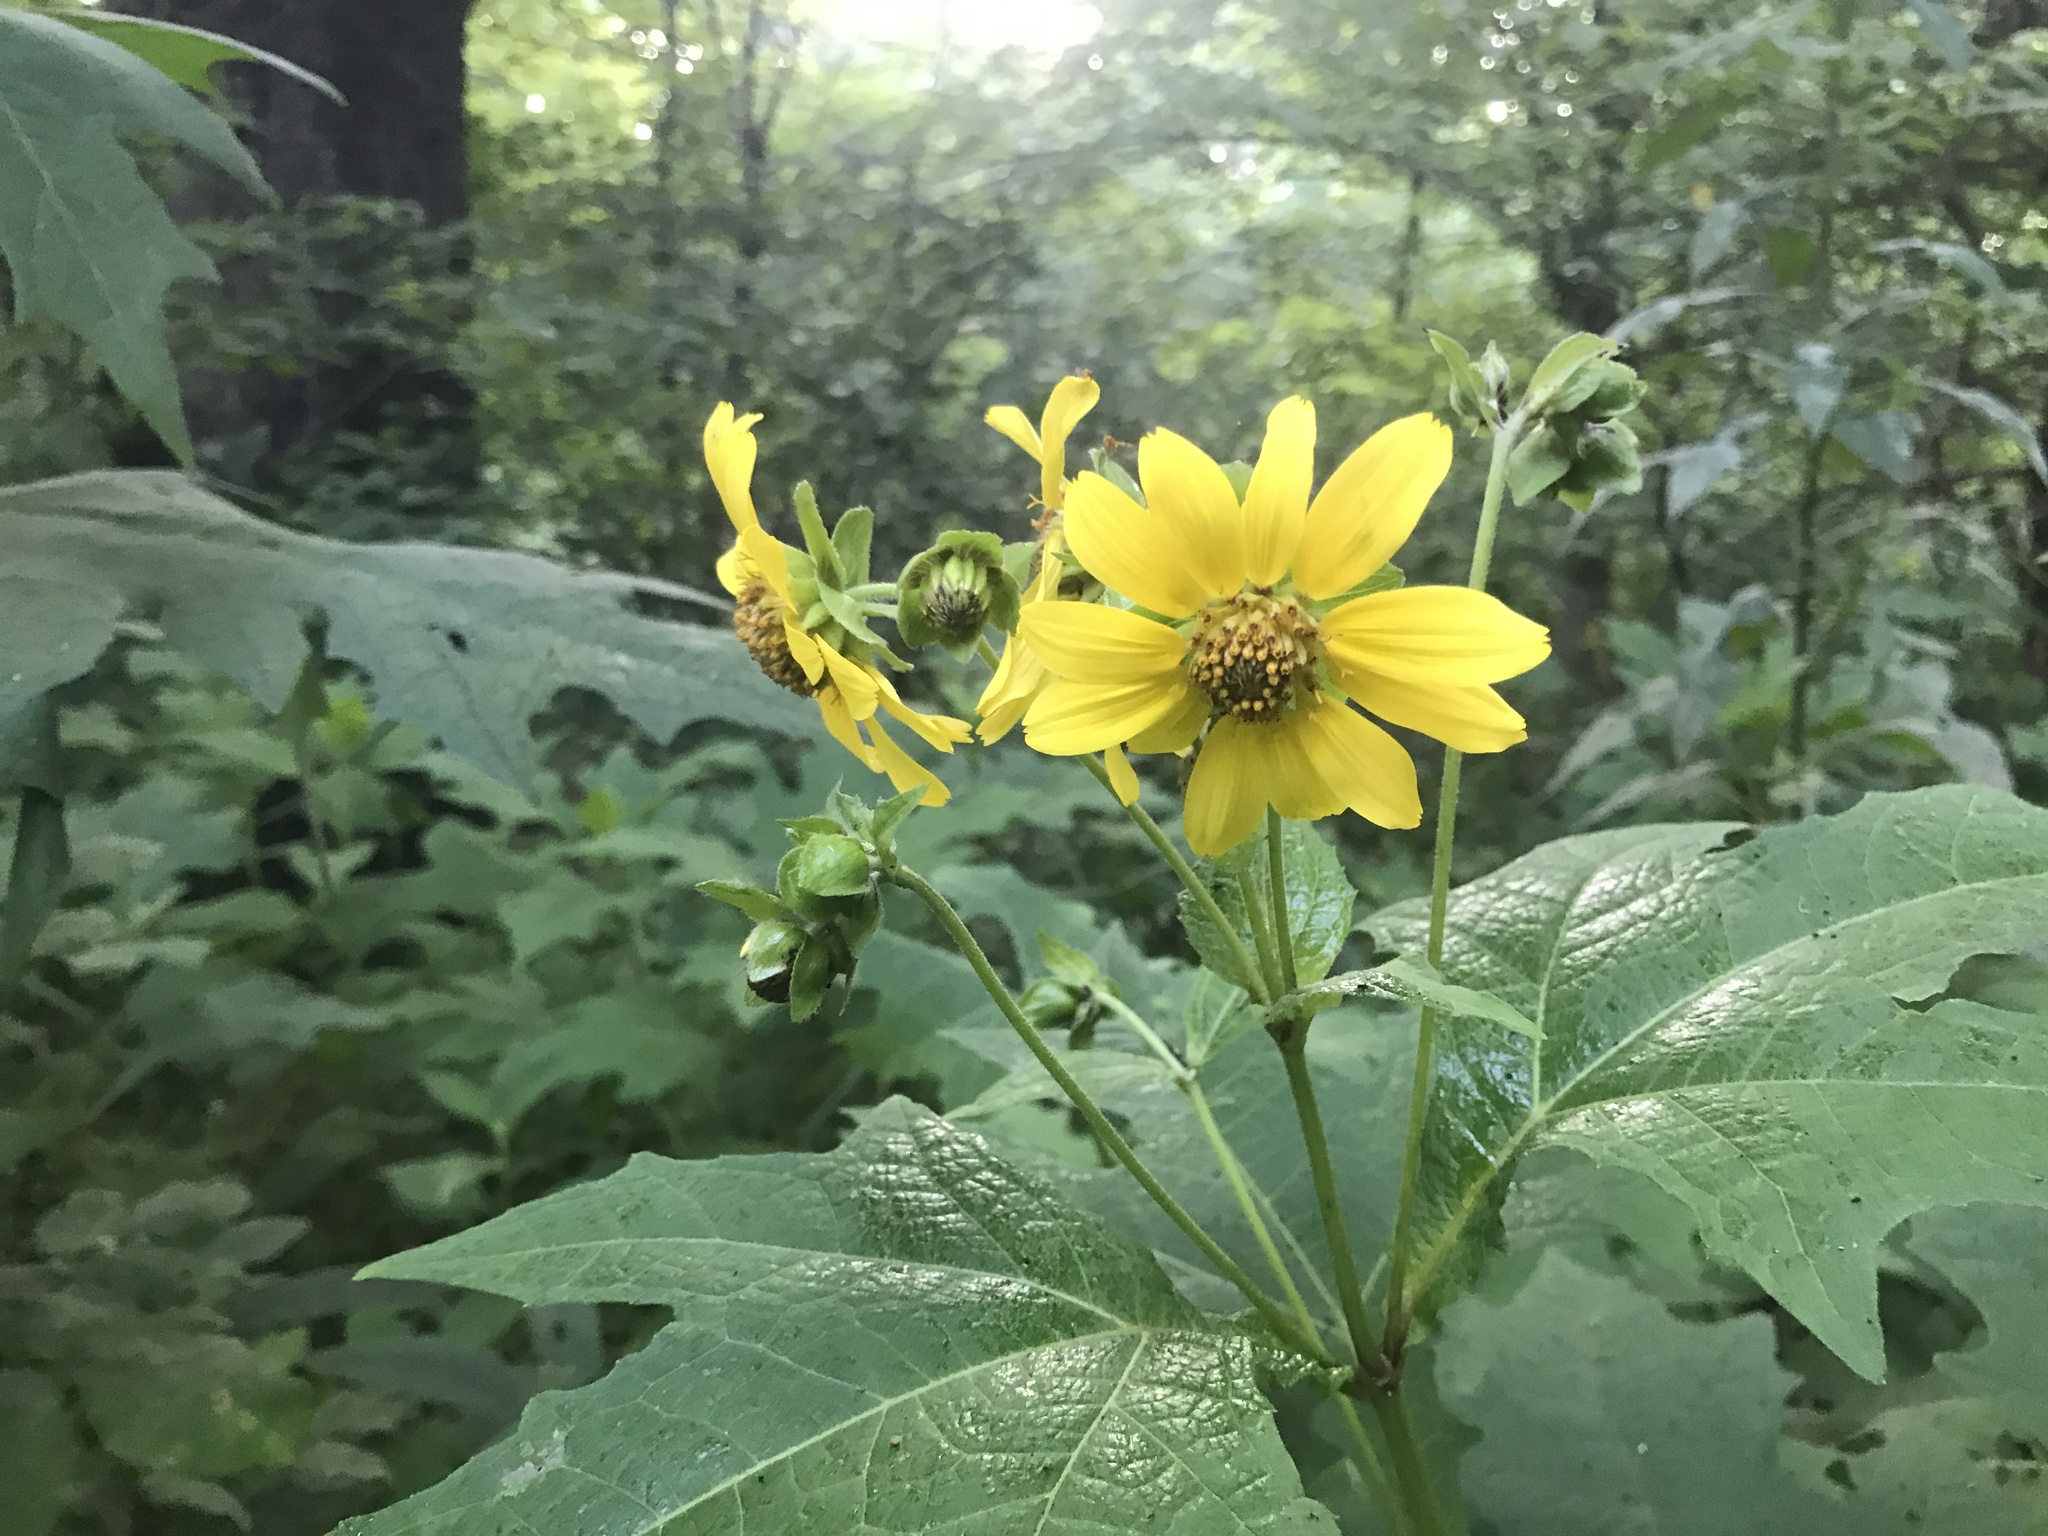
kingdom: Plantae
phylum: Tracheophyta
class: Magnoliopsida
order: Asterales
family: Asteraceae
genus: Smallanthus
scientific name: Smallanthus uvedalia
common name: Bear's-foot
